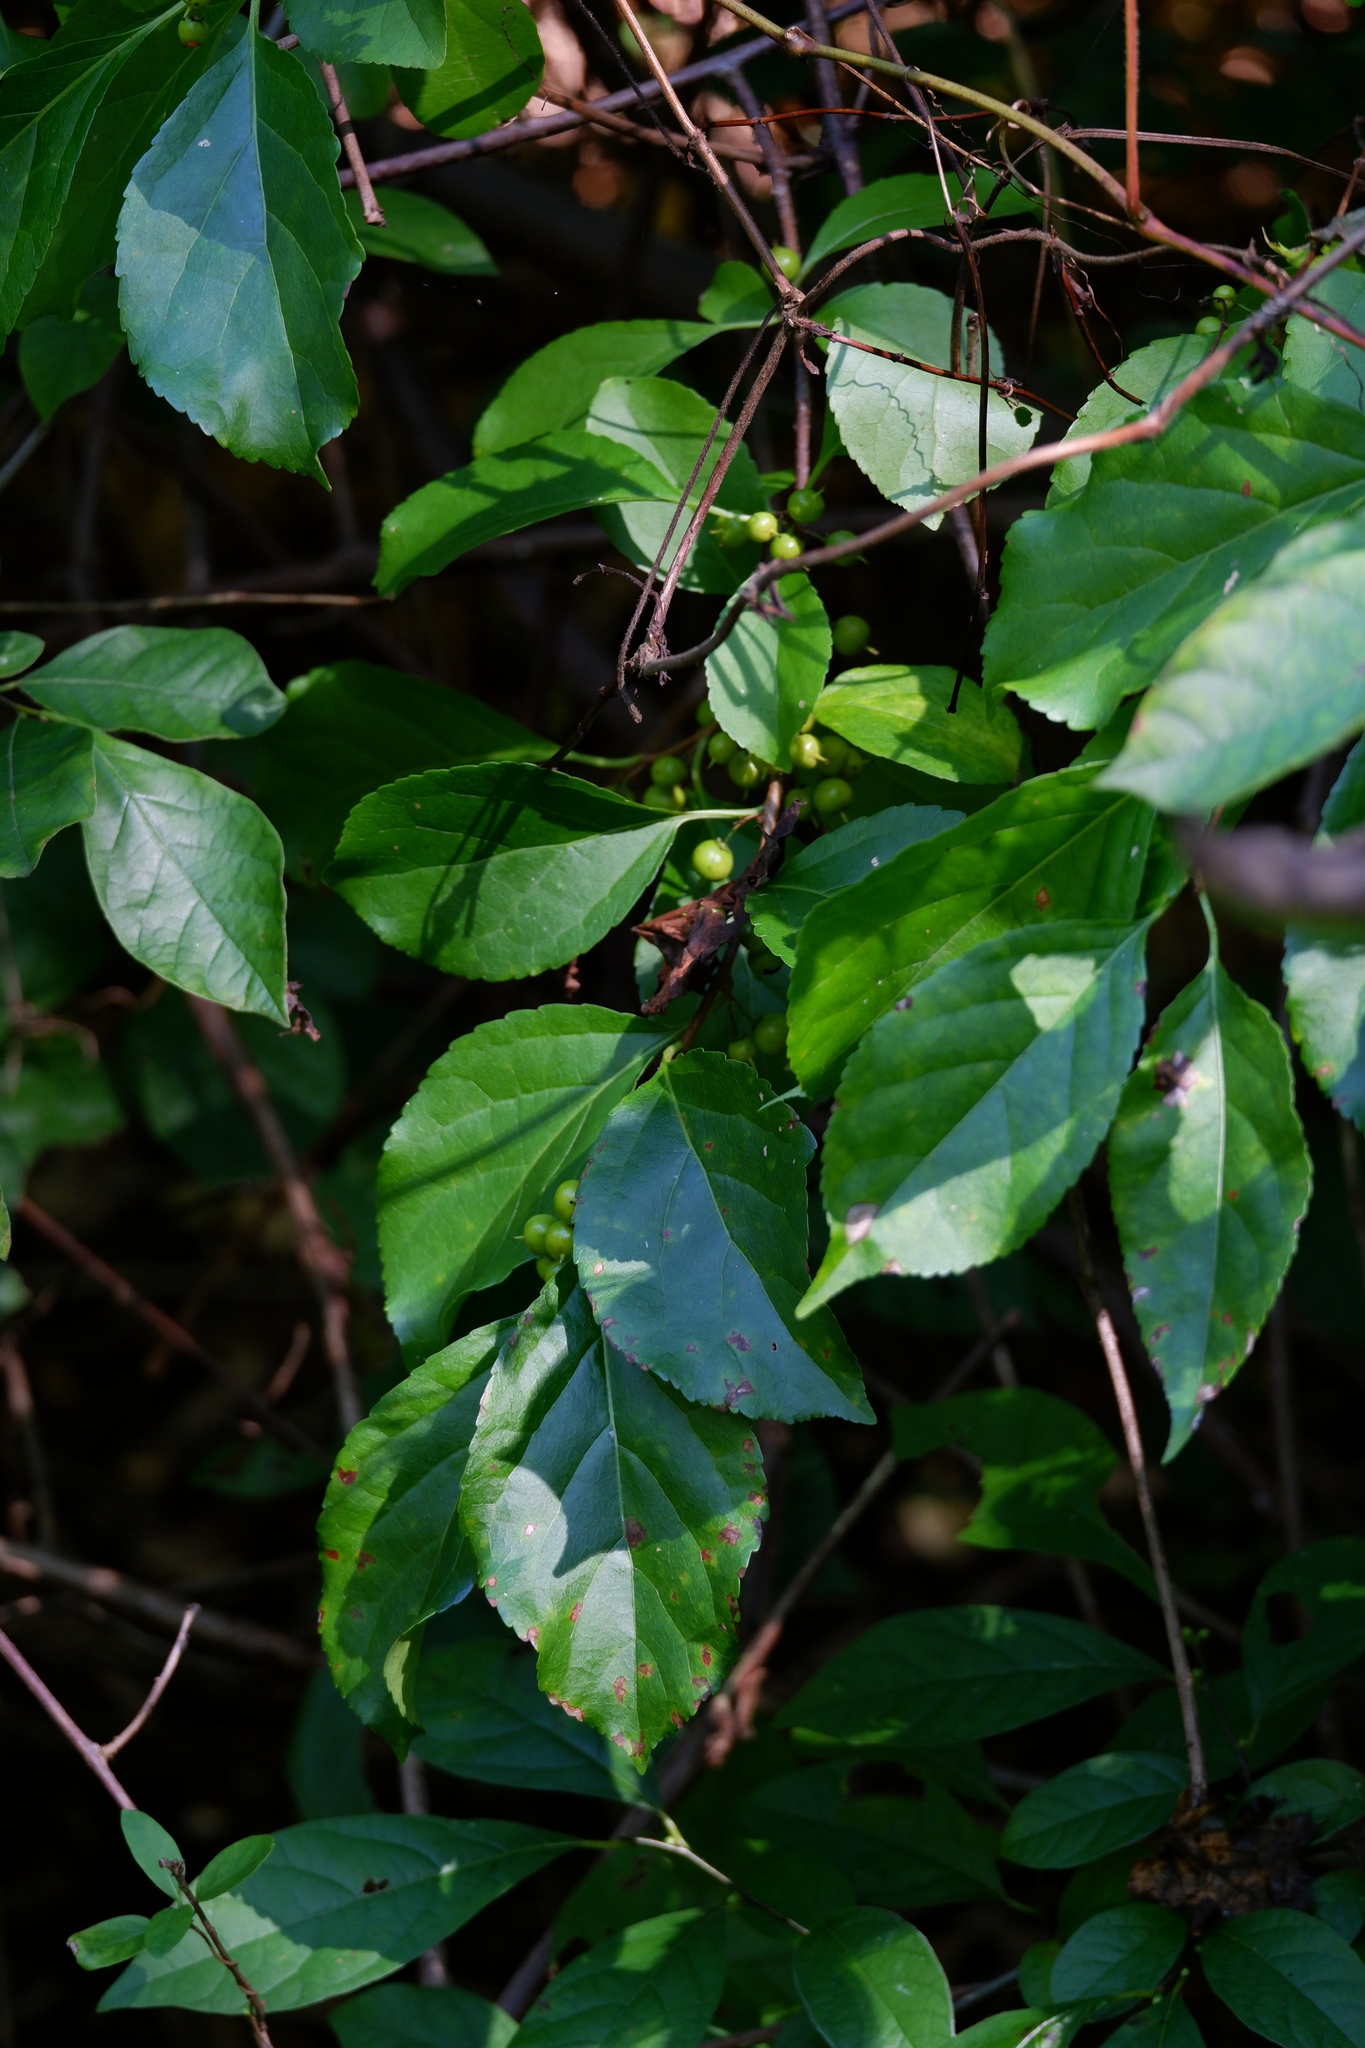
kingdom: Plantae
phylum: Tracheophyta
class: Magnoliopsida
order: Celastrales
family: Celastraceae
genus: Celastrus
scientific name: Celastrus orbiculatus
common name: Oriental bittersweet
